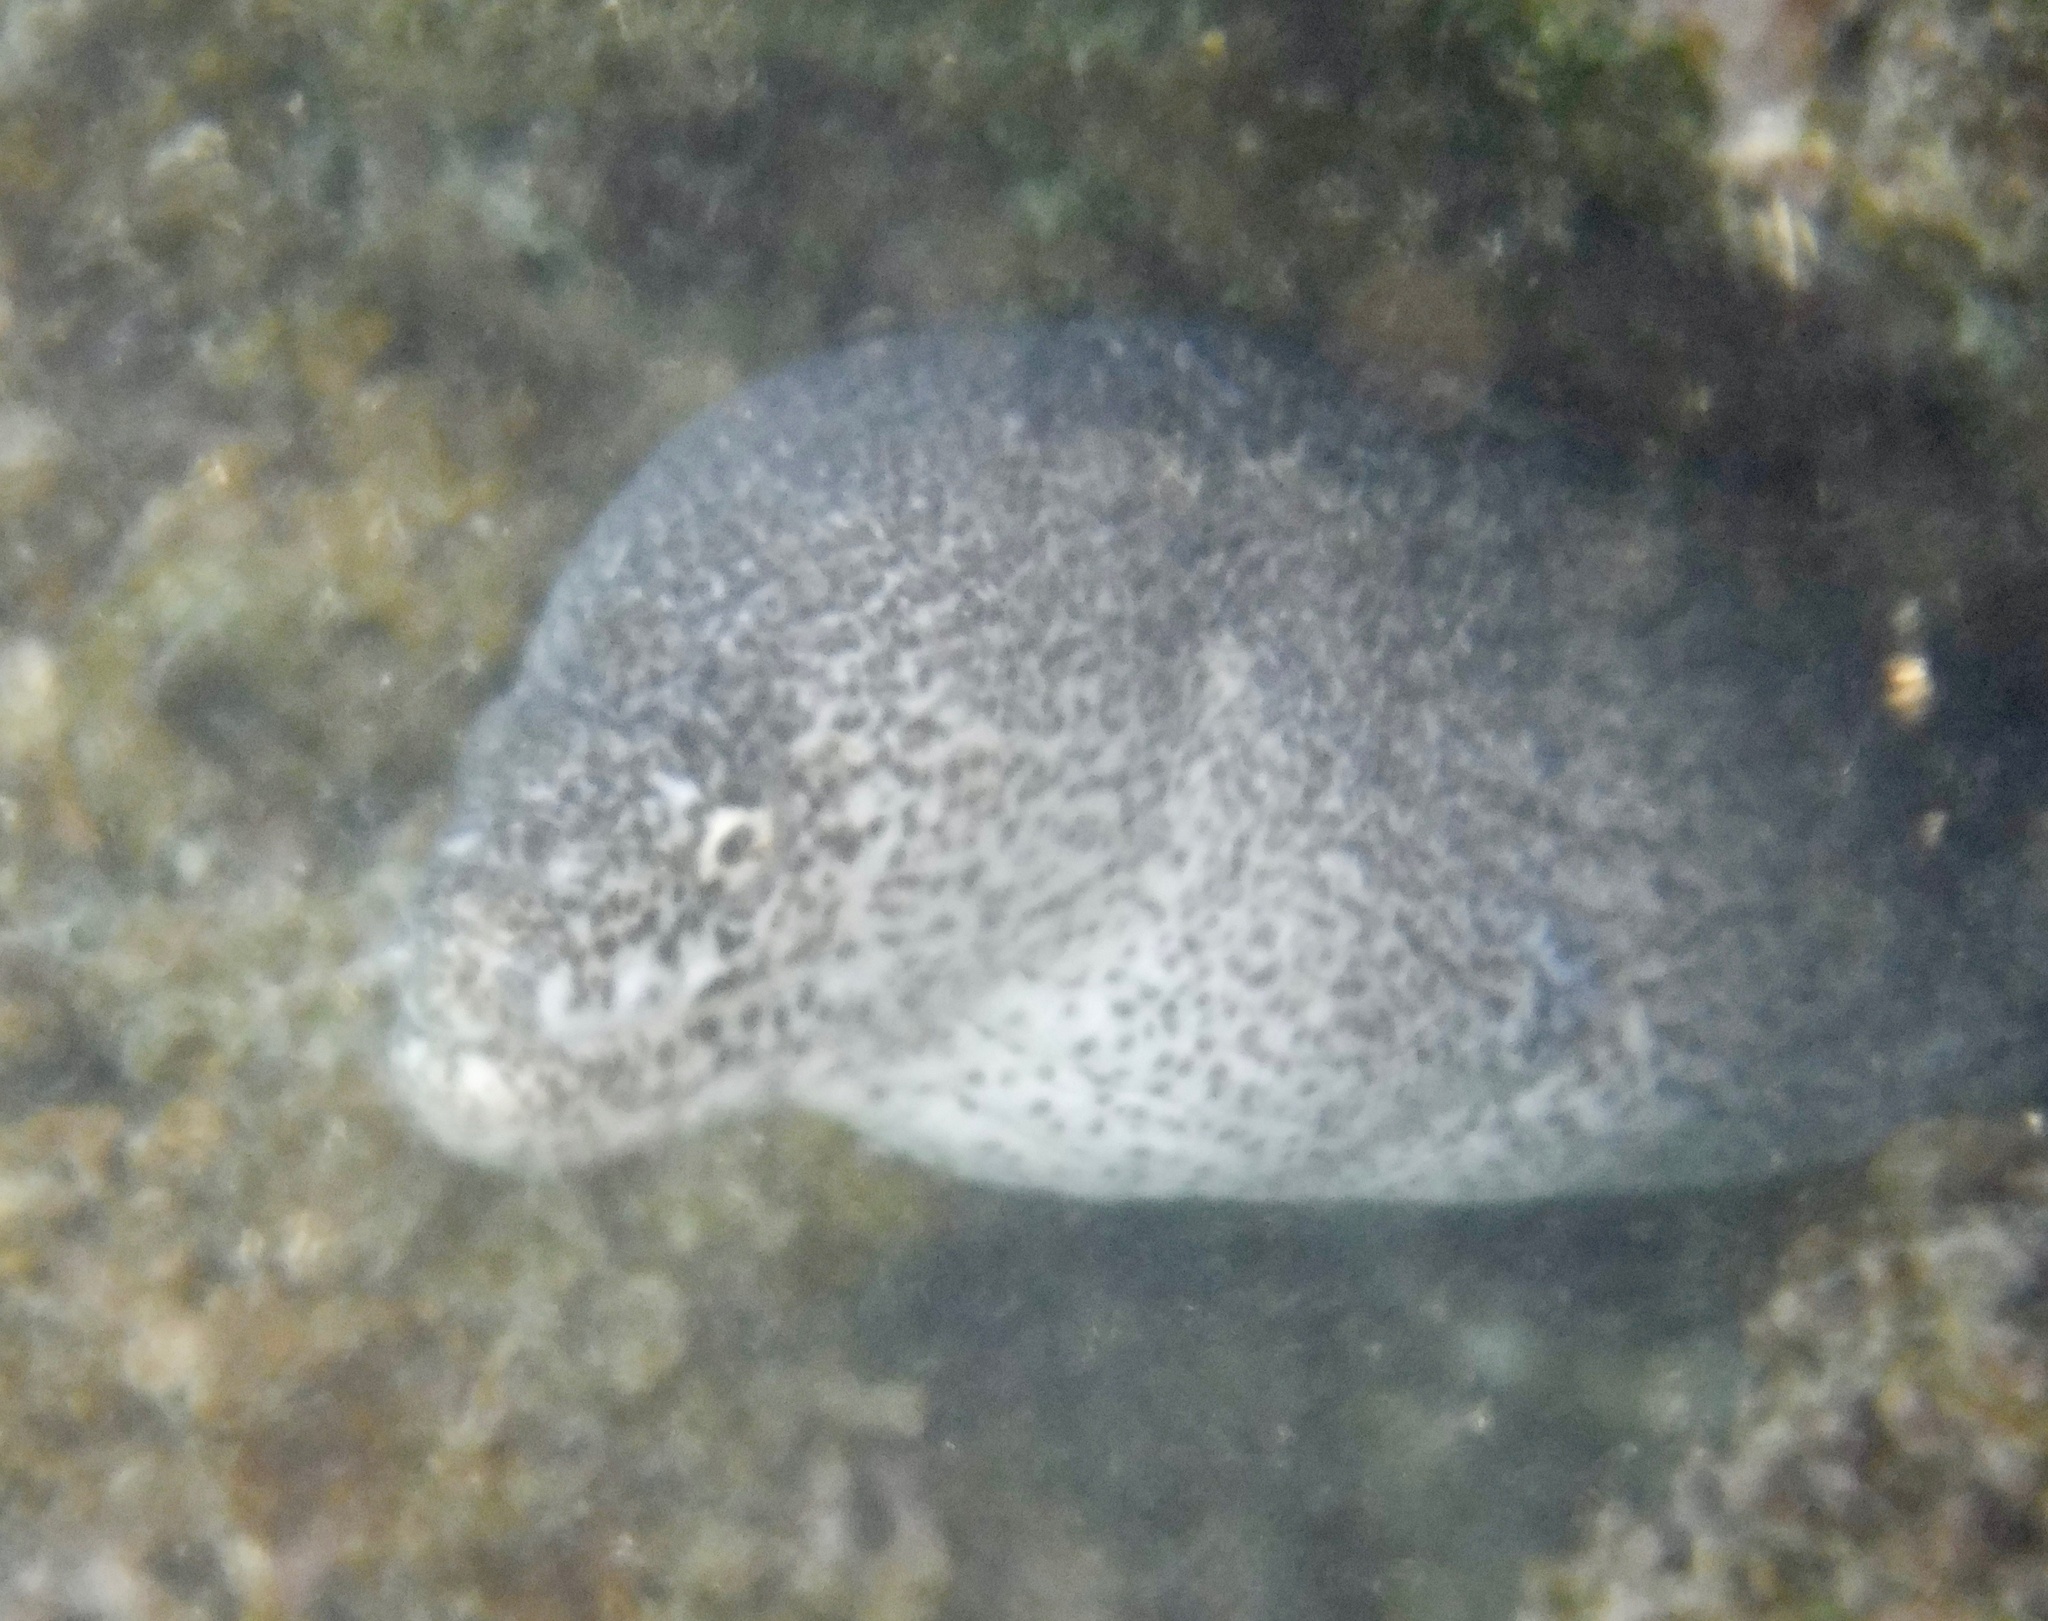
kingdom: Animalia
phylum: Chordata
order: Anguilliformes
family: Muraenidae
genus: Gymnothorax
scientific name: Gymnothorax pictus
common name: Peppered moray
